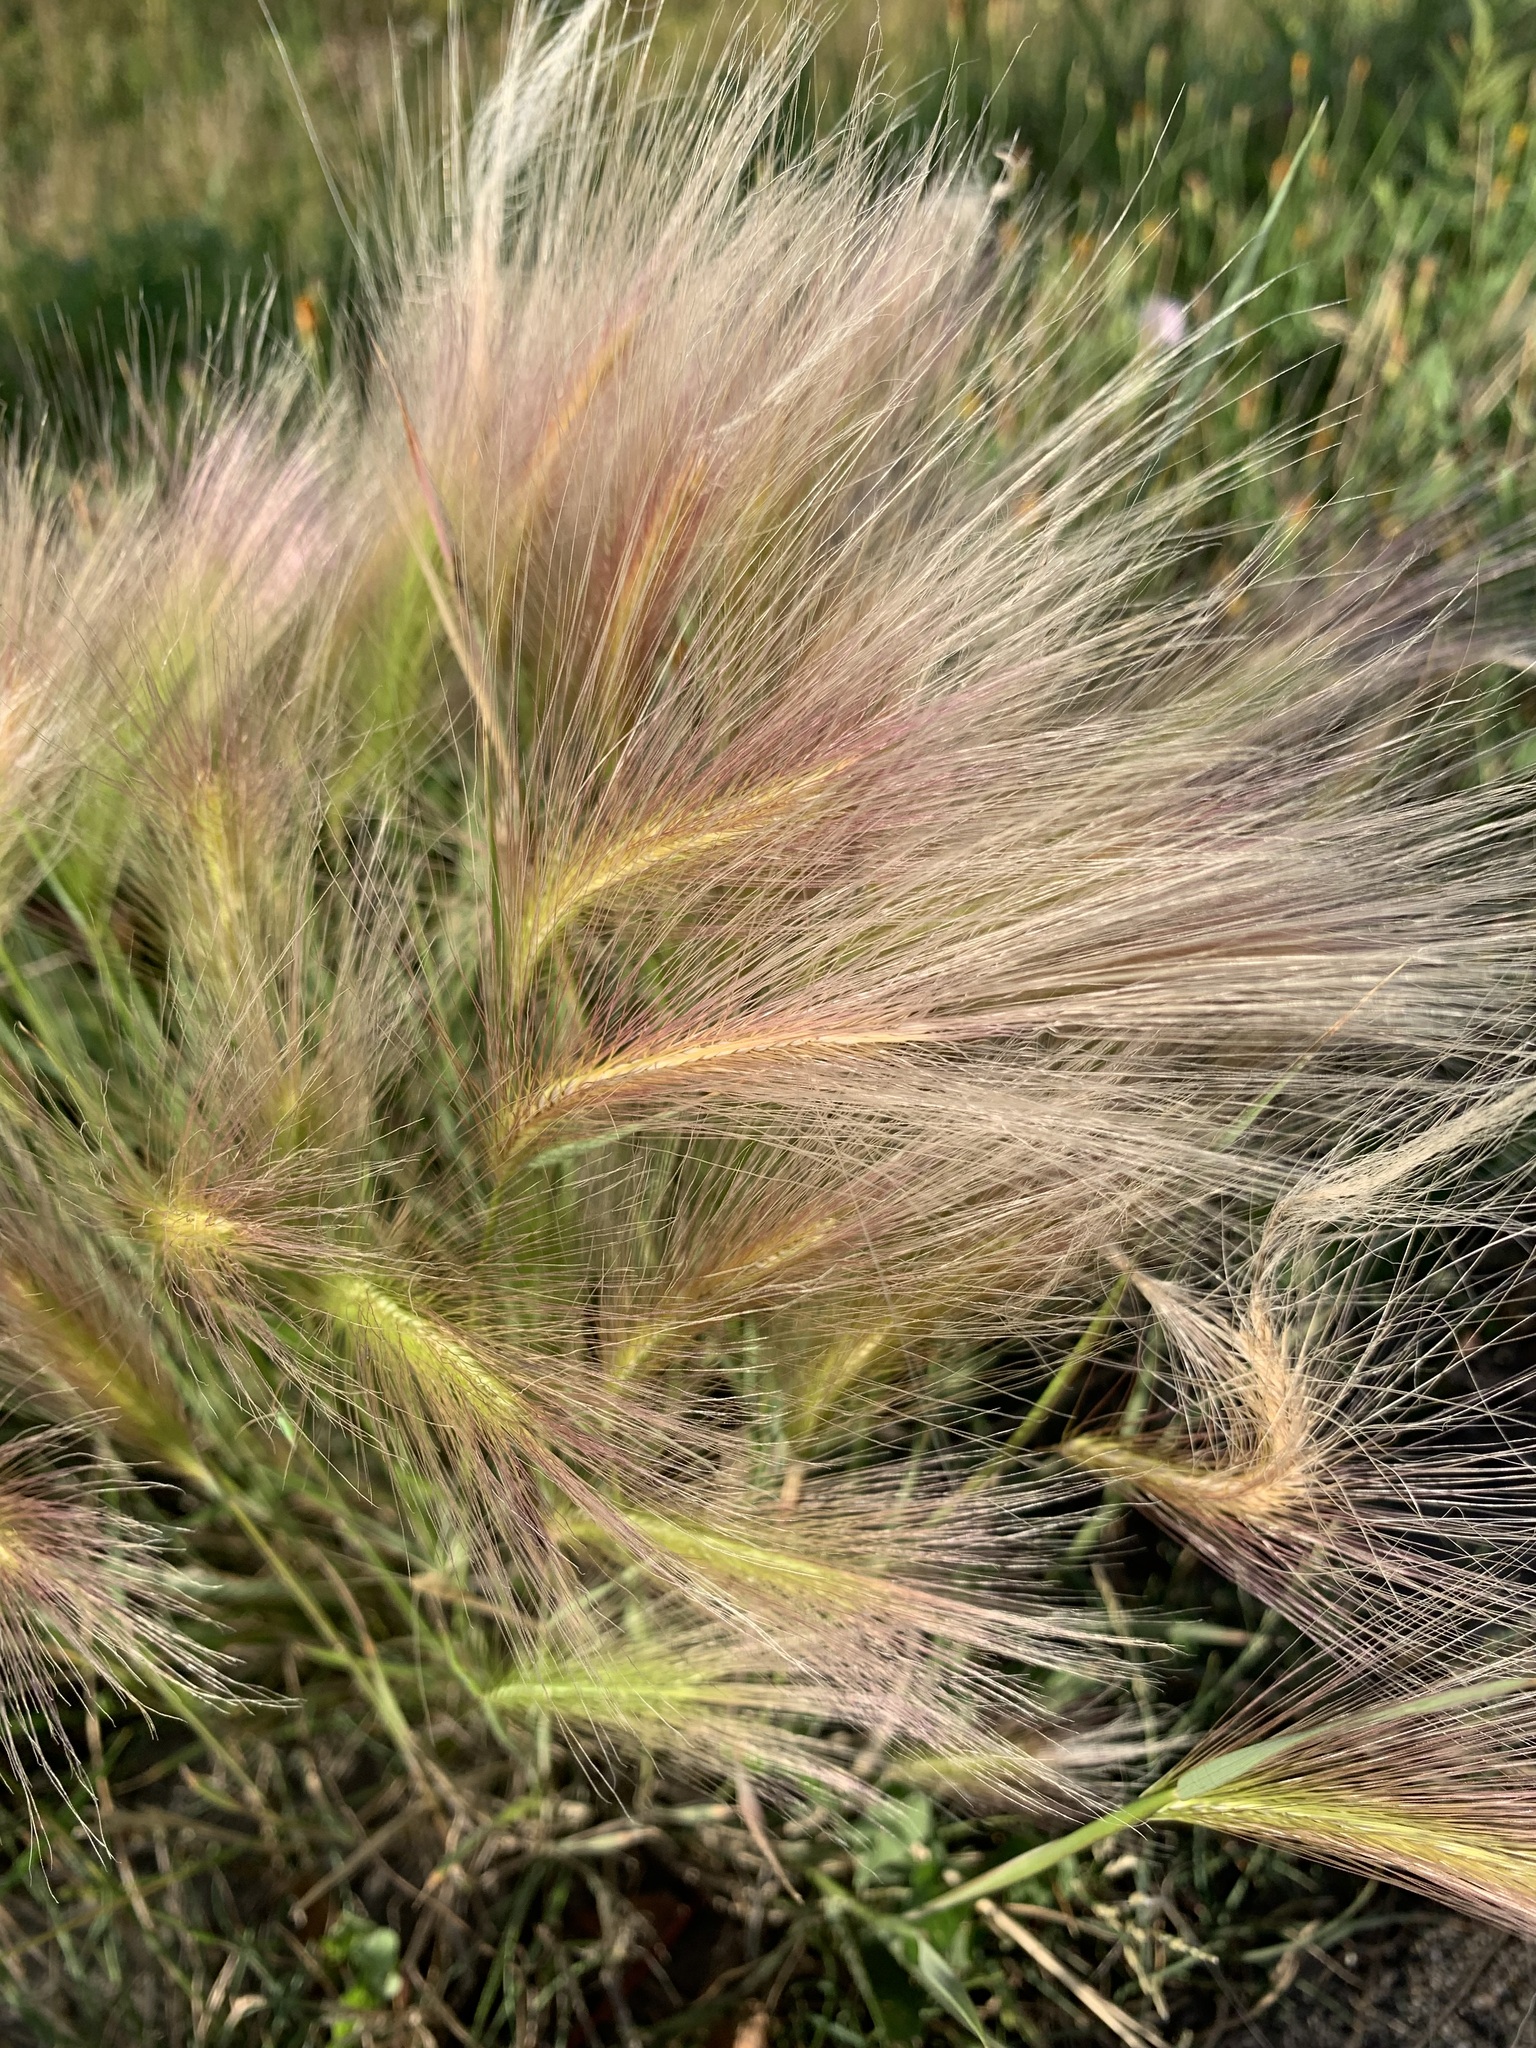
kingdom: Plantae
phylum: Tracheophyta
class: Liliopsida
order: Poales
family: Poaceae
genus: Hordeum
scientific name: Hordeum jubatum
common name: Foxtail barley
